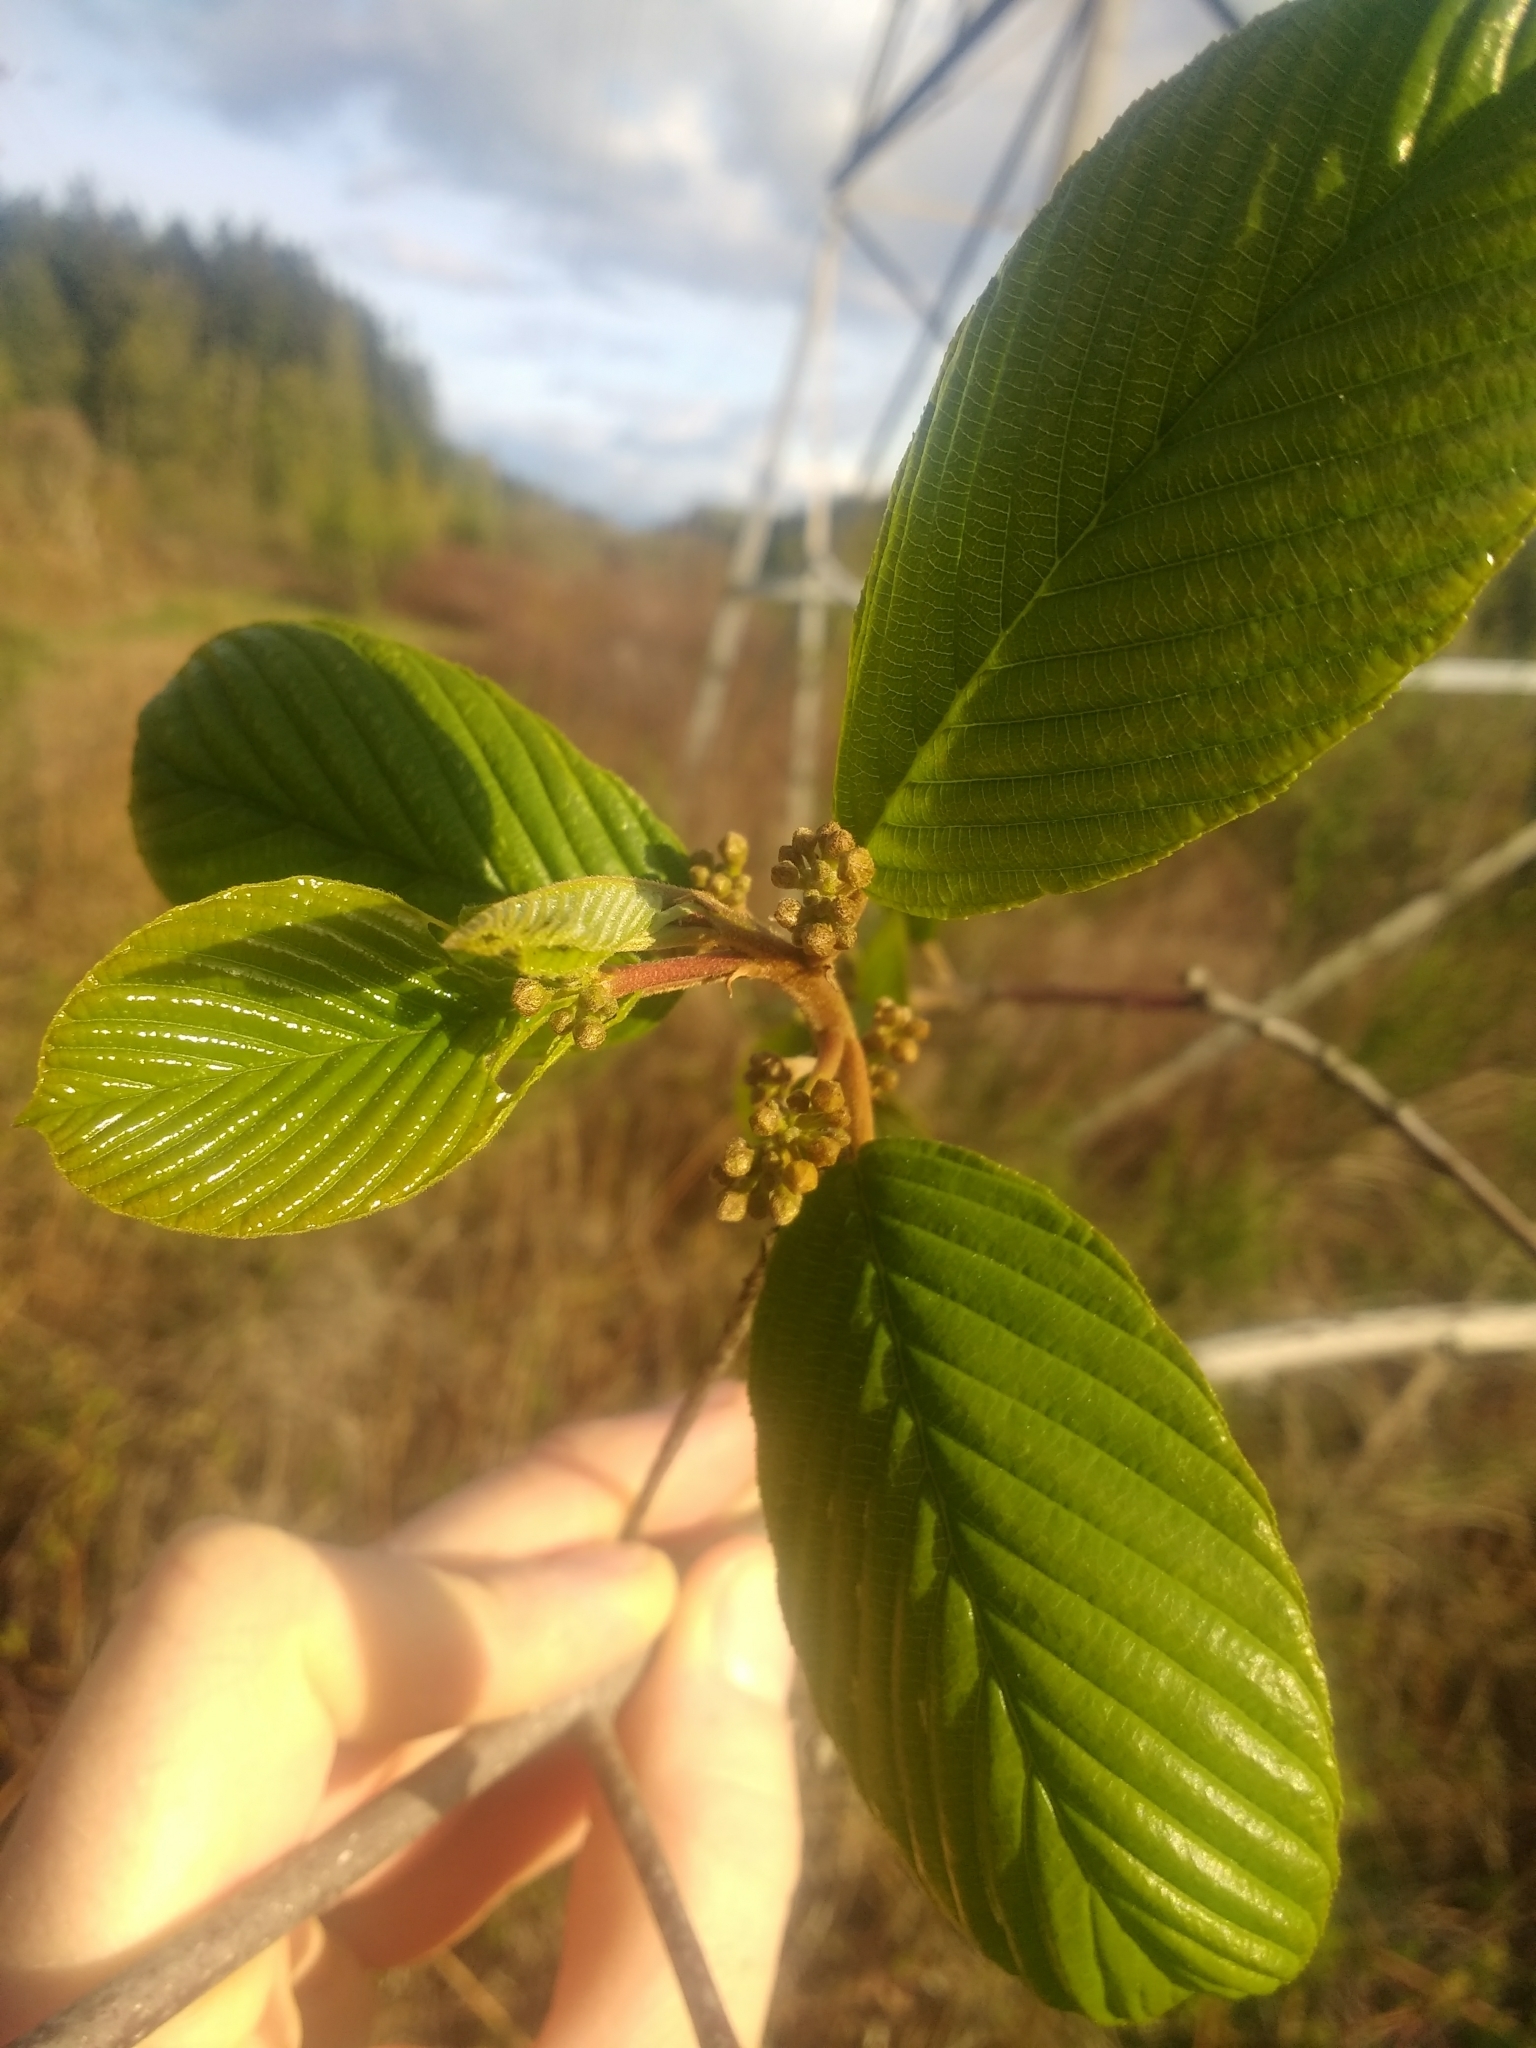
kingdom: Plantae
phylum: Tracheophyta
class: Magnoliopsida
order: Rosales
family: Rhamnaceae
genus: Frangula
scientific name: Frangula purshiana
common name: Cascara buckthorn
